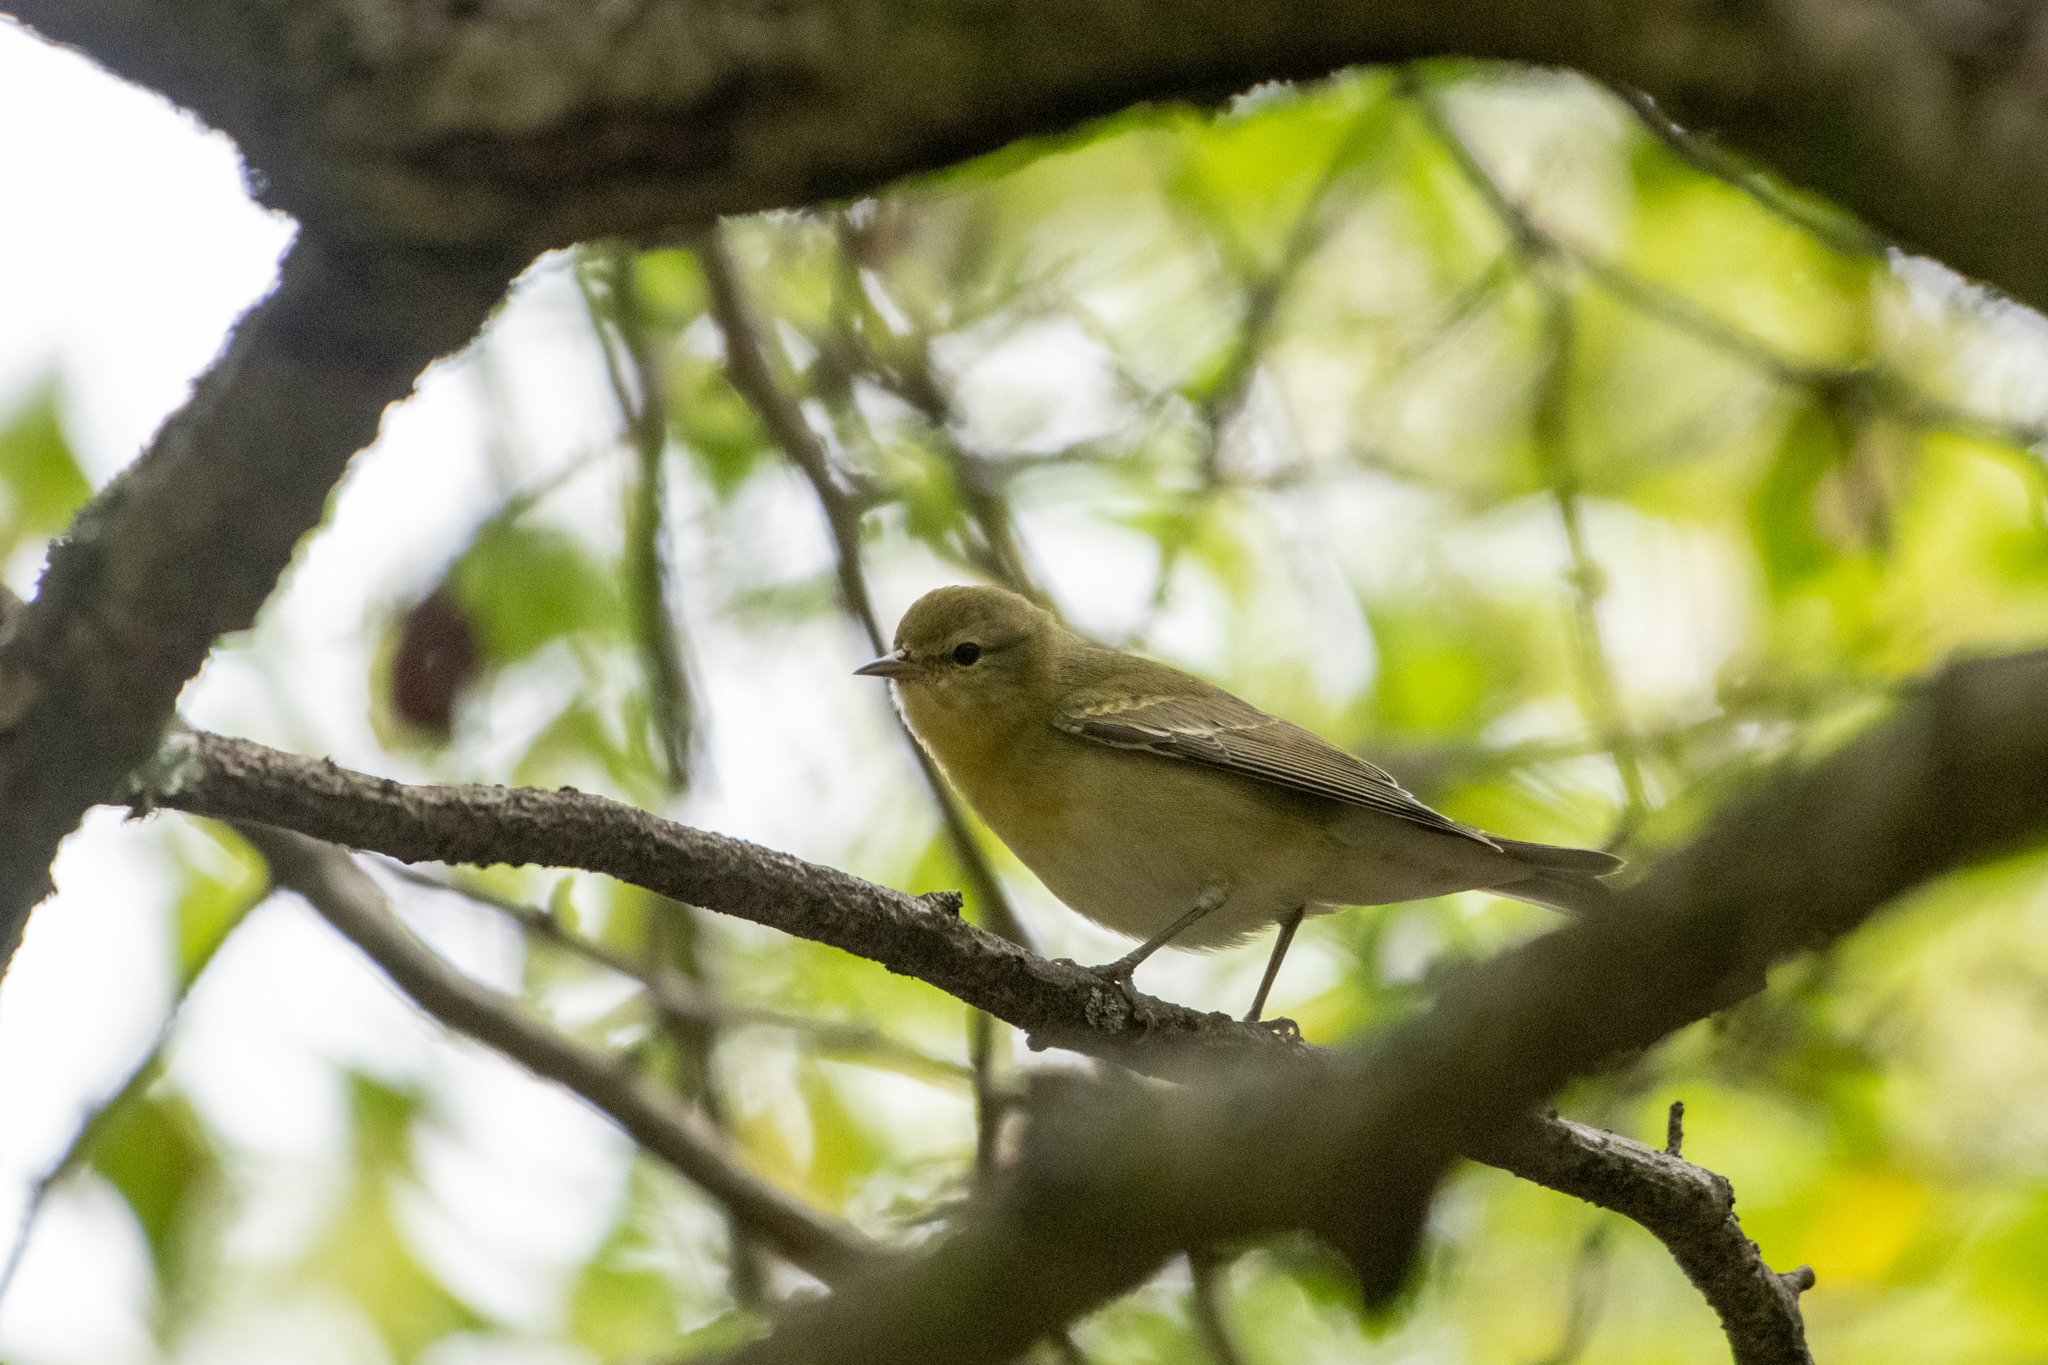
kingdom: Animalia
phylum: Chordata
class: Aves
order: Passeriformes
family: Parulidae
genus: Leiothlypis
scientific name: Leiothlypis peregrina
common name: Tennessee warbler
